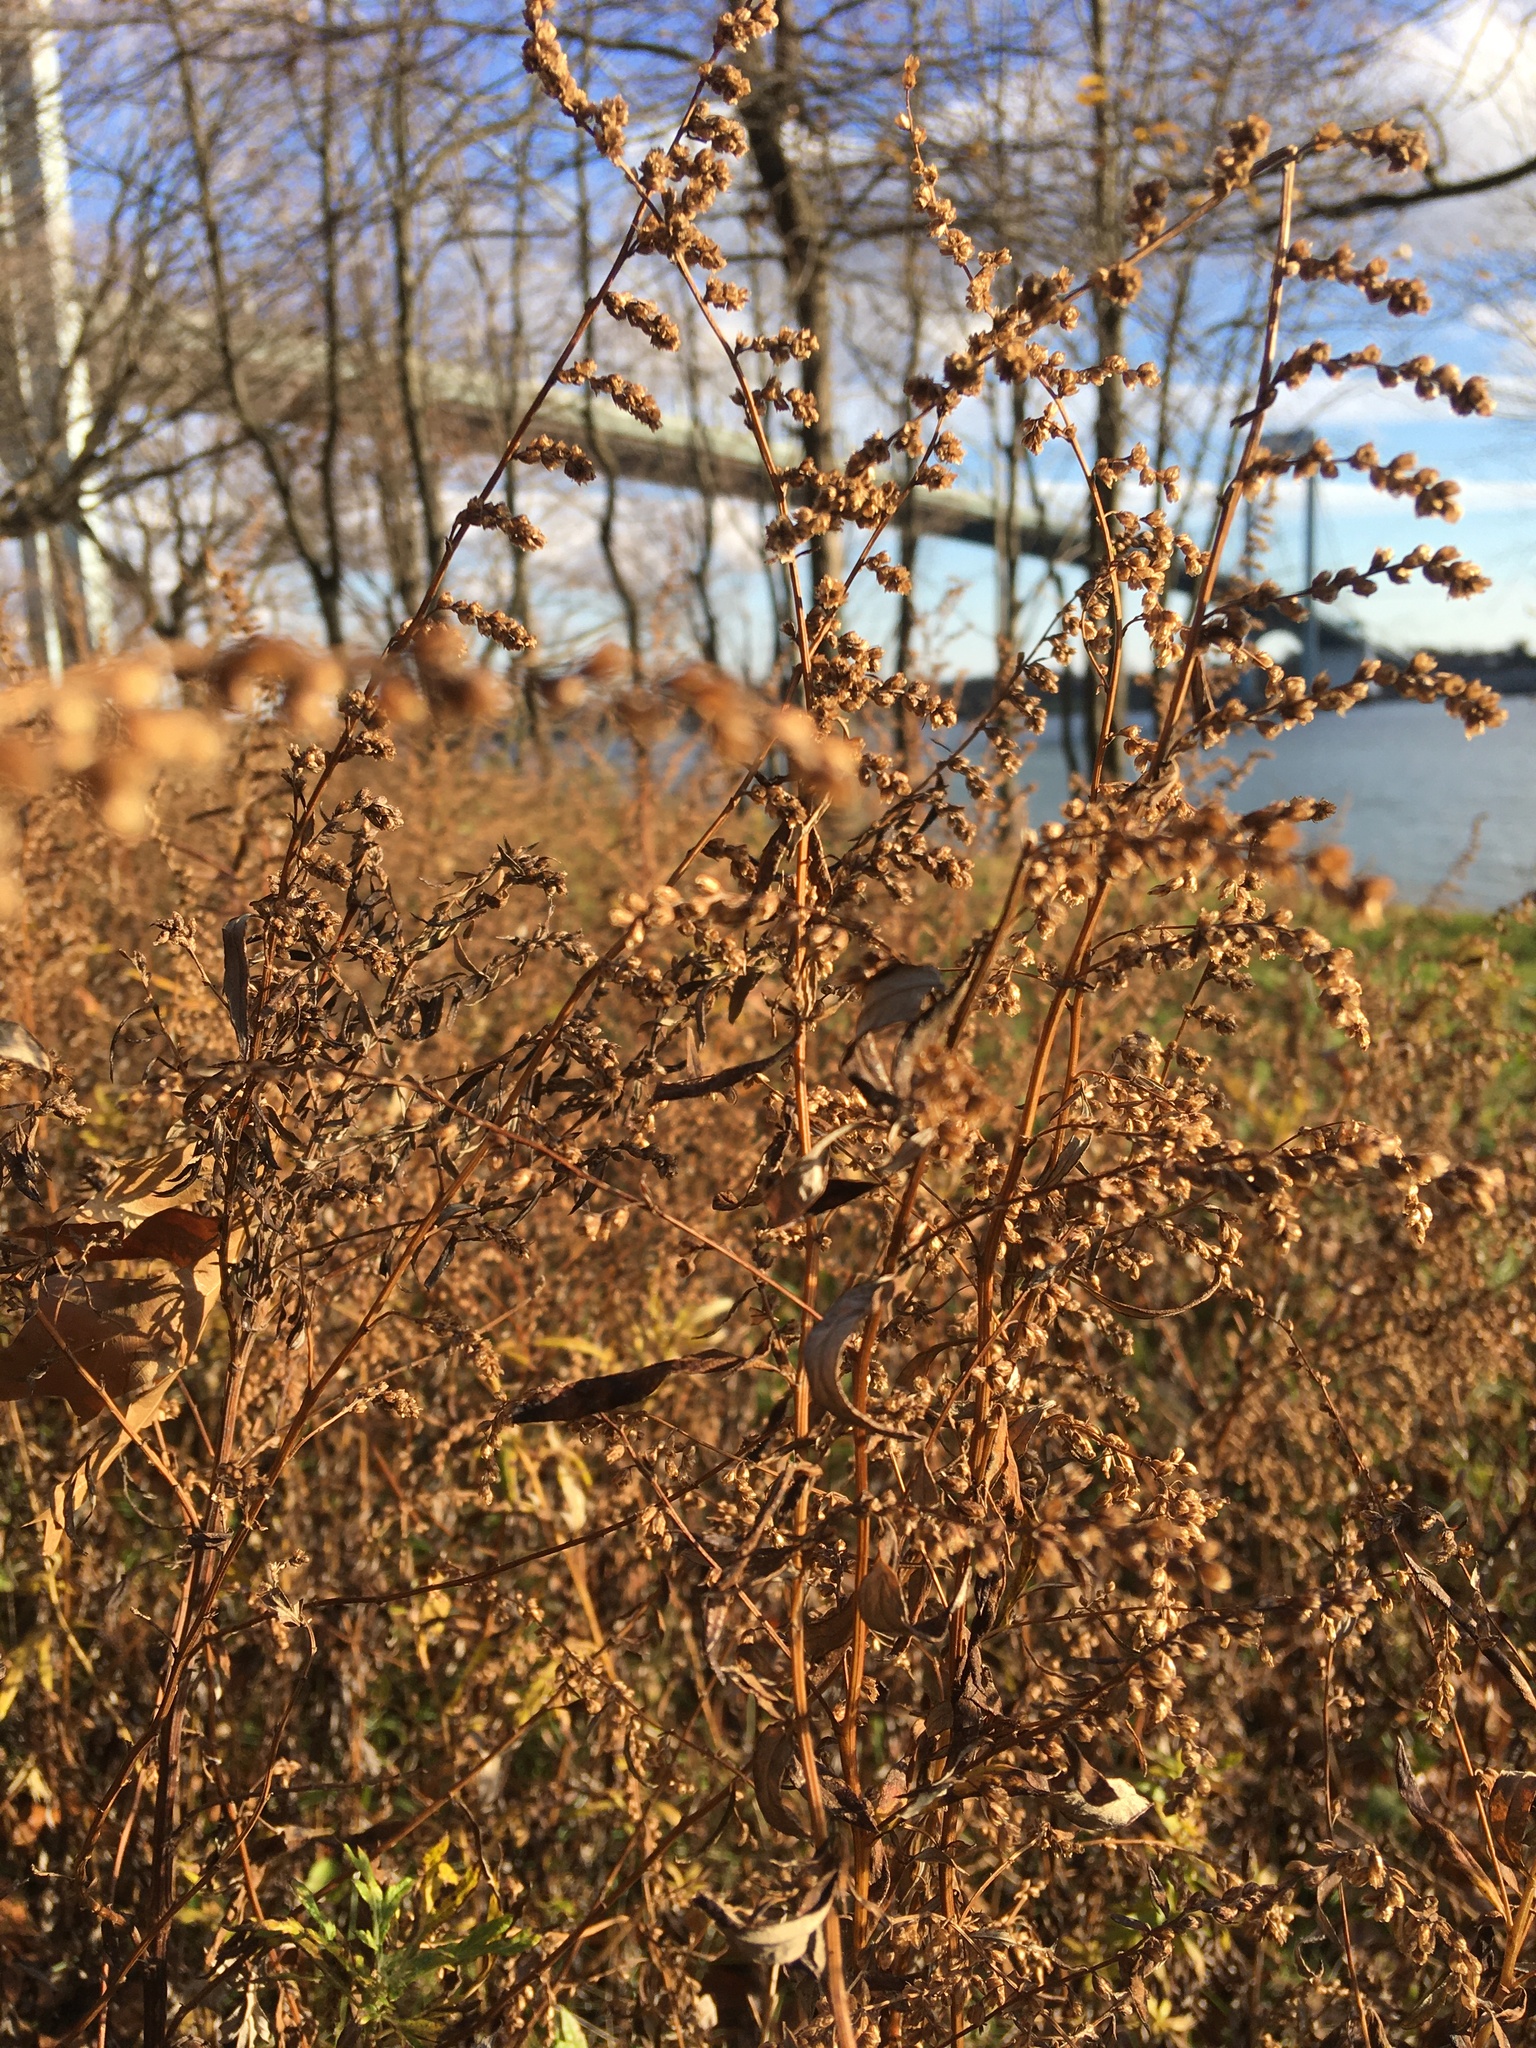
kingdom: Plantae
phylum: Tracheophyta
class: Magnoliopsida
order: Asterales
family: Asteraceae
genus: Artemisia
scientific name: Artemisia vulgaris
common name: Mugwort
